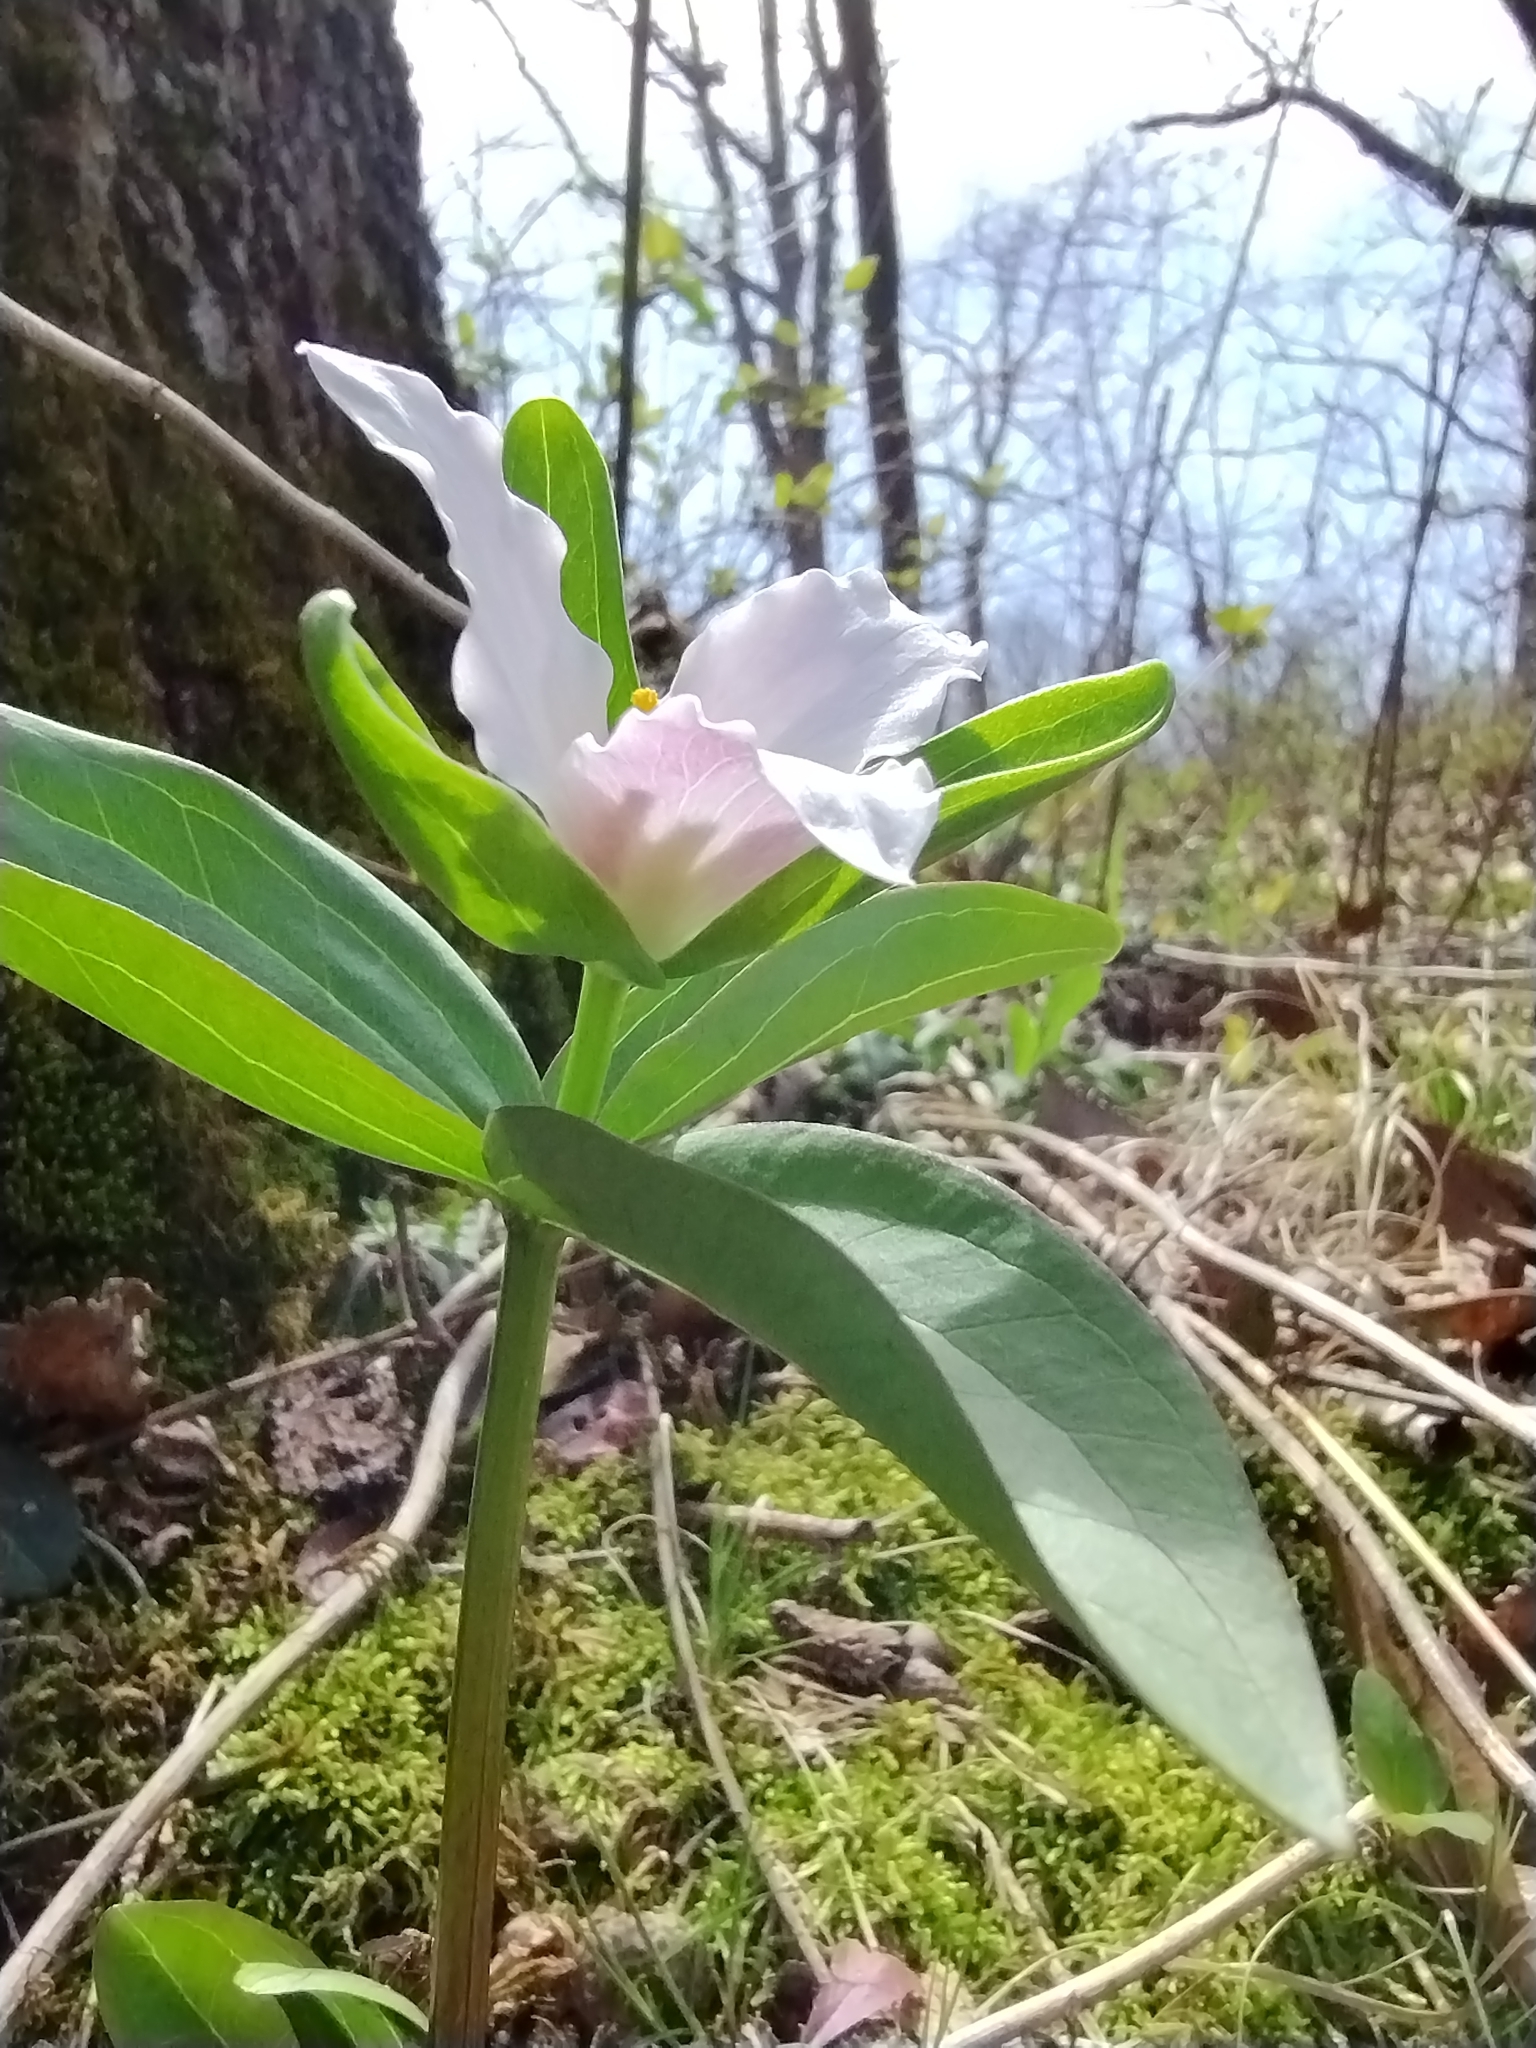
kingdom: Plantae
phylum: Tracheophyta
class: Liliopsida
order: Liliales
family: Melanthiaceae
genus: Trillium
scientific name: Trillium pusillum
